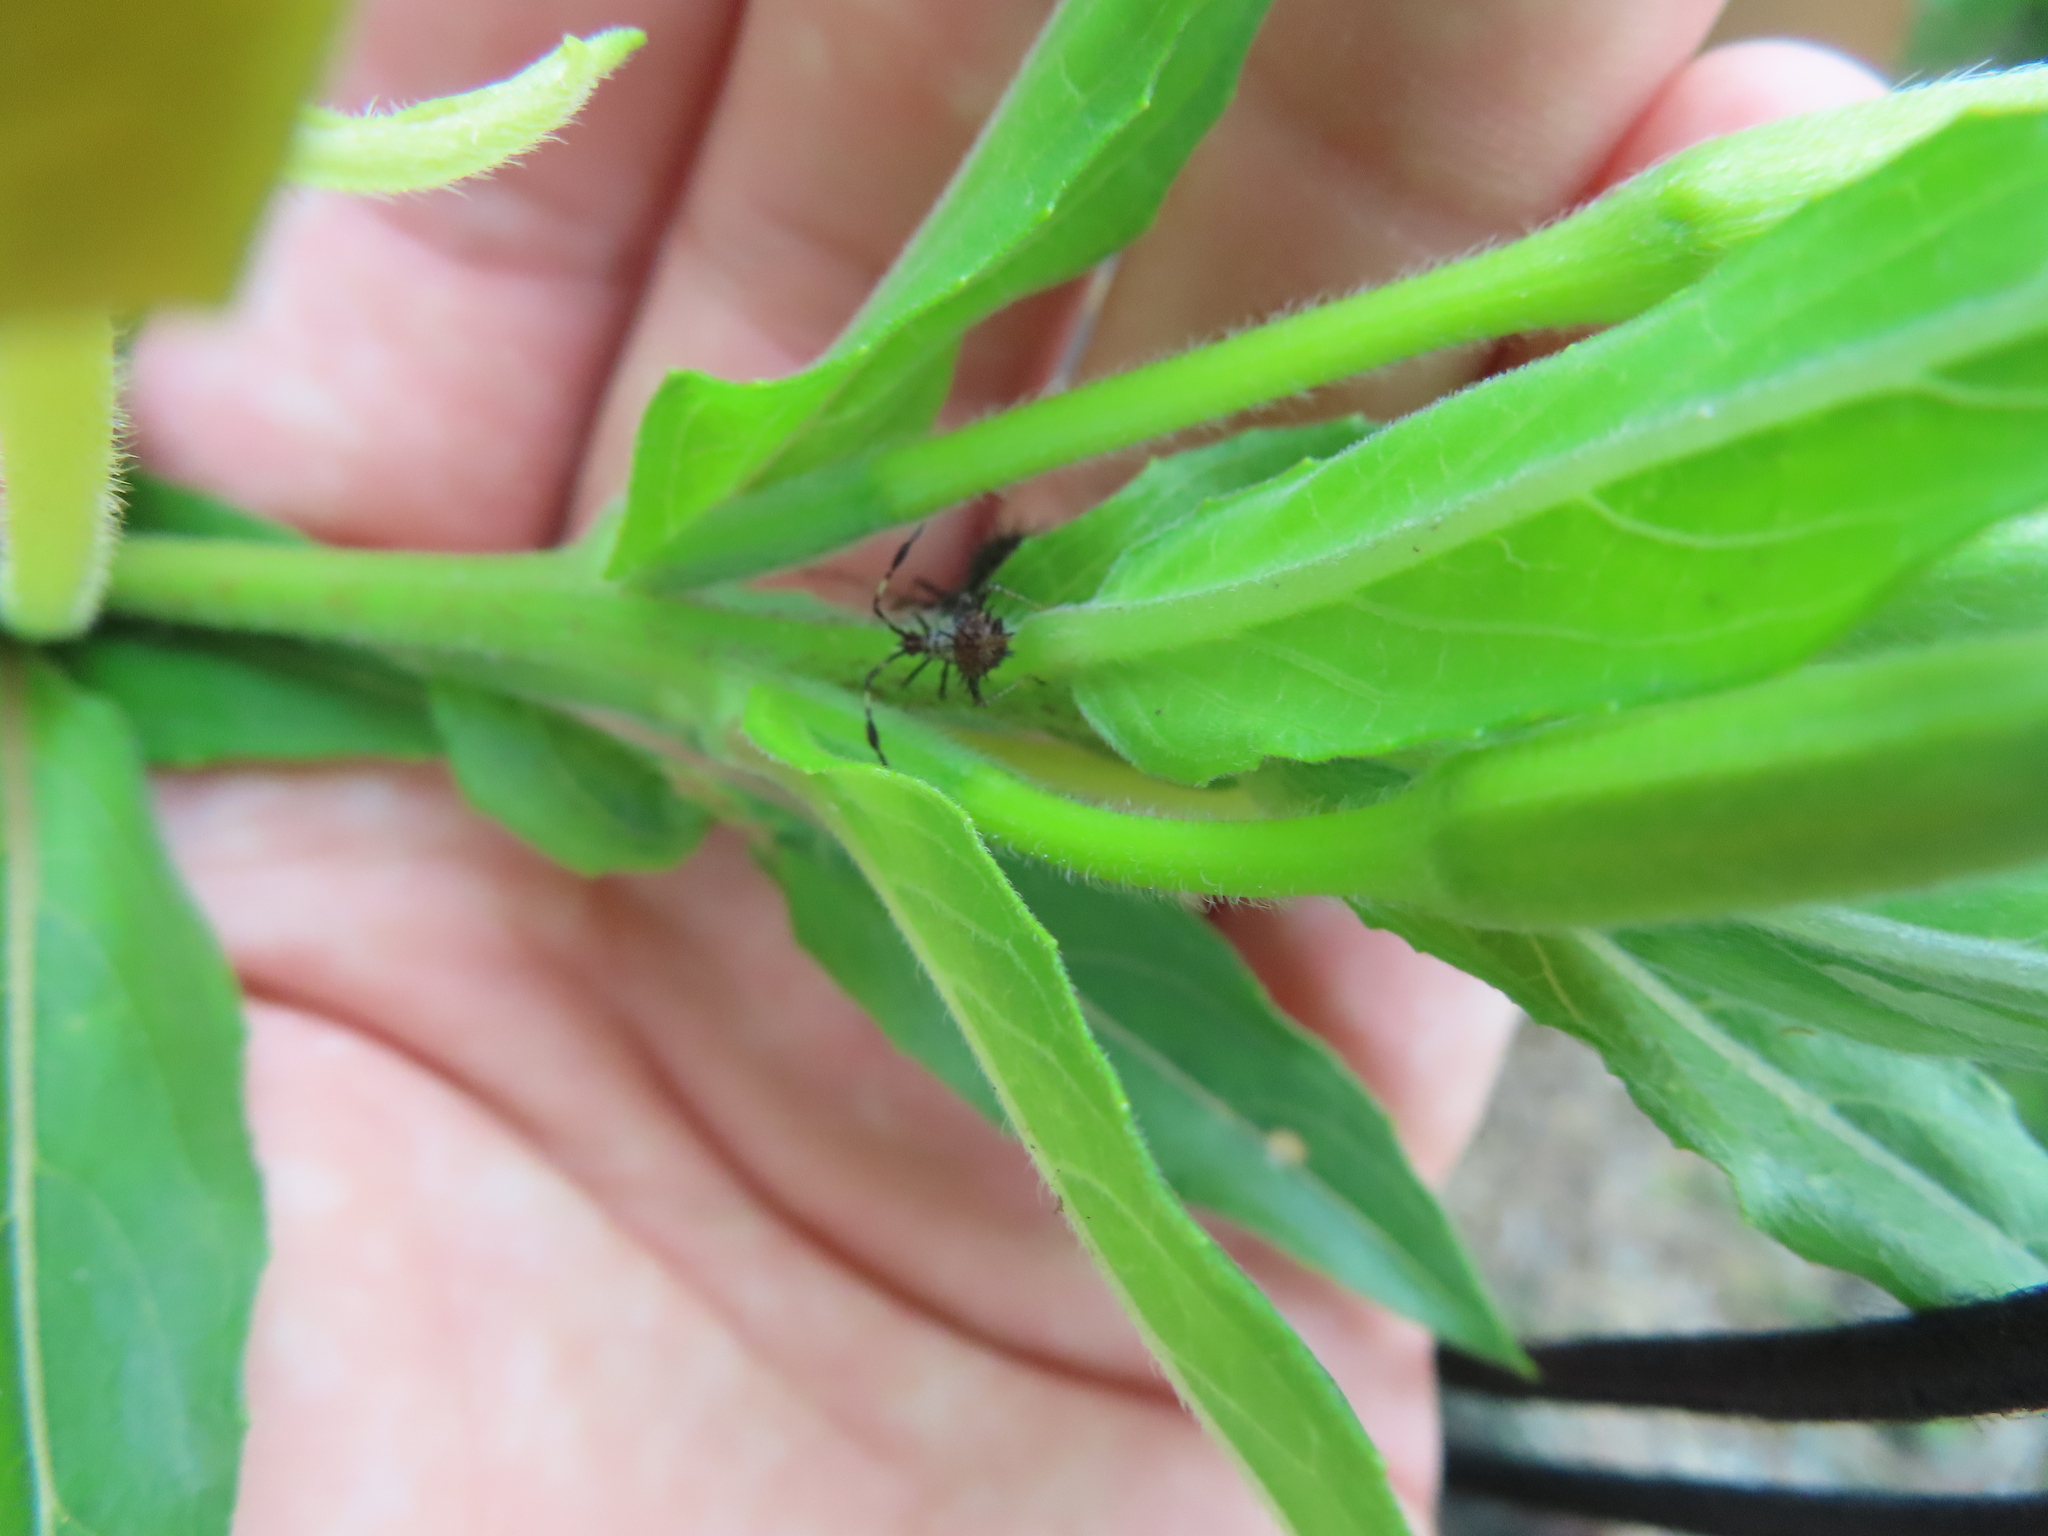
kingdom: Animalia
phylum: Arthropoda
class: Insecta
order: Hemiptera
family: Coreidae
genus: Euthochtha
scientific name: Euthochtha galeator
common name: Helmeted squash bug
